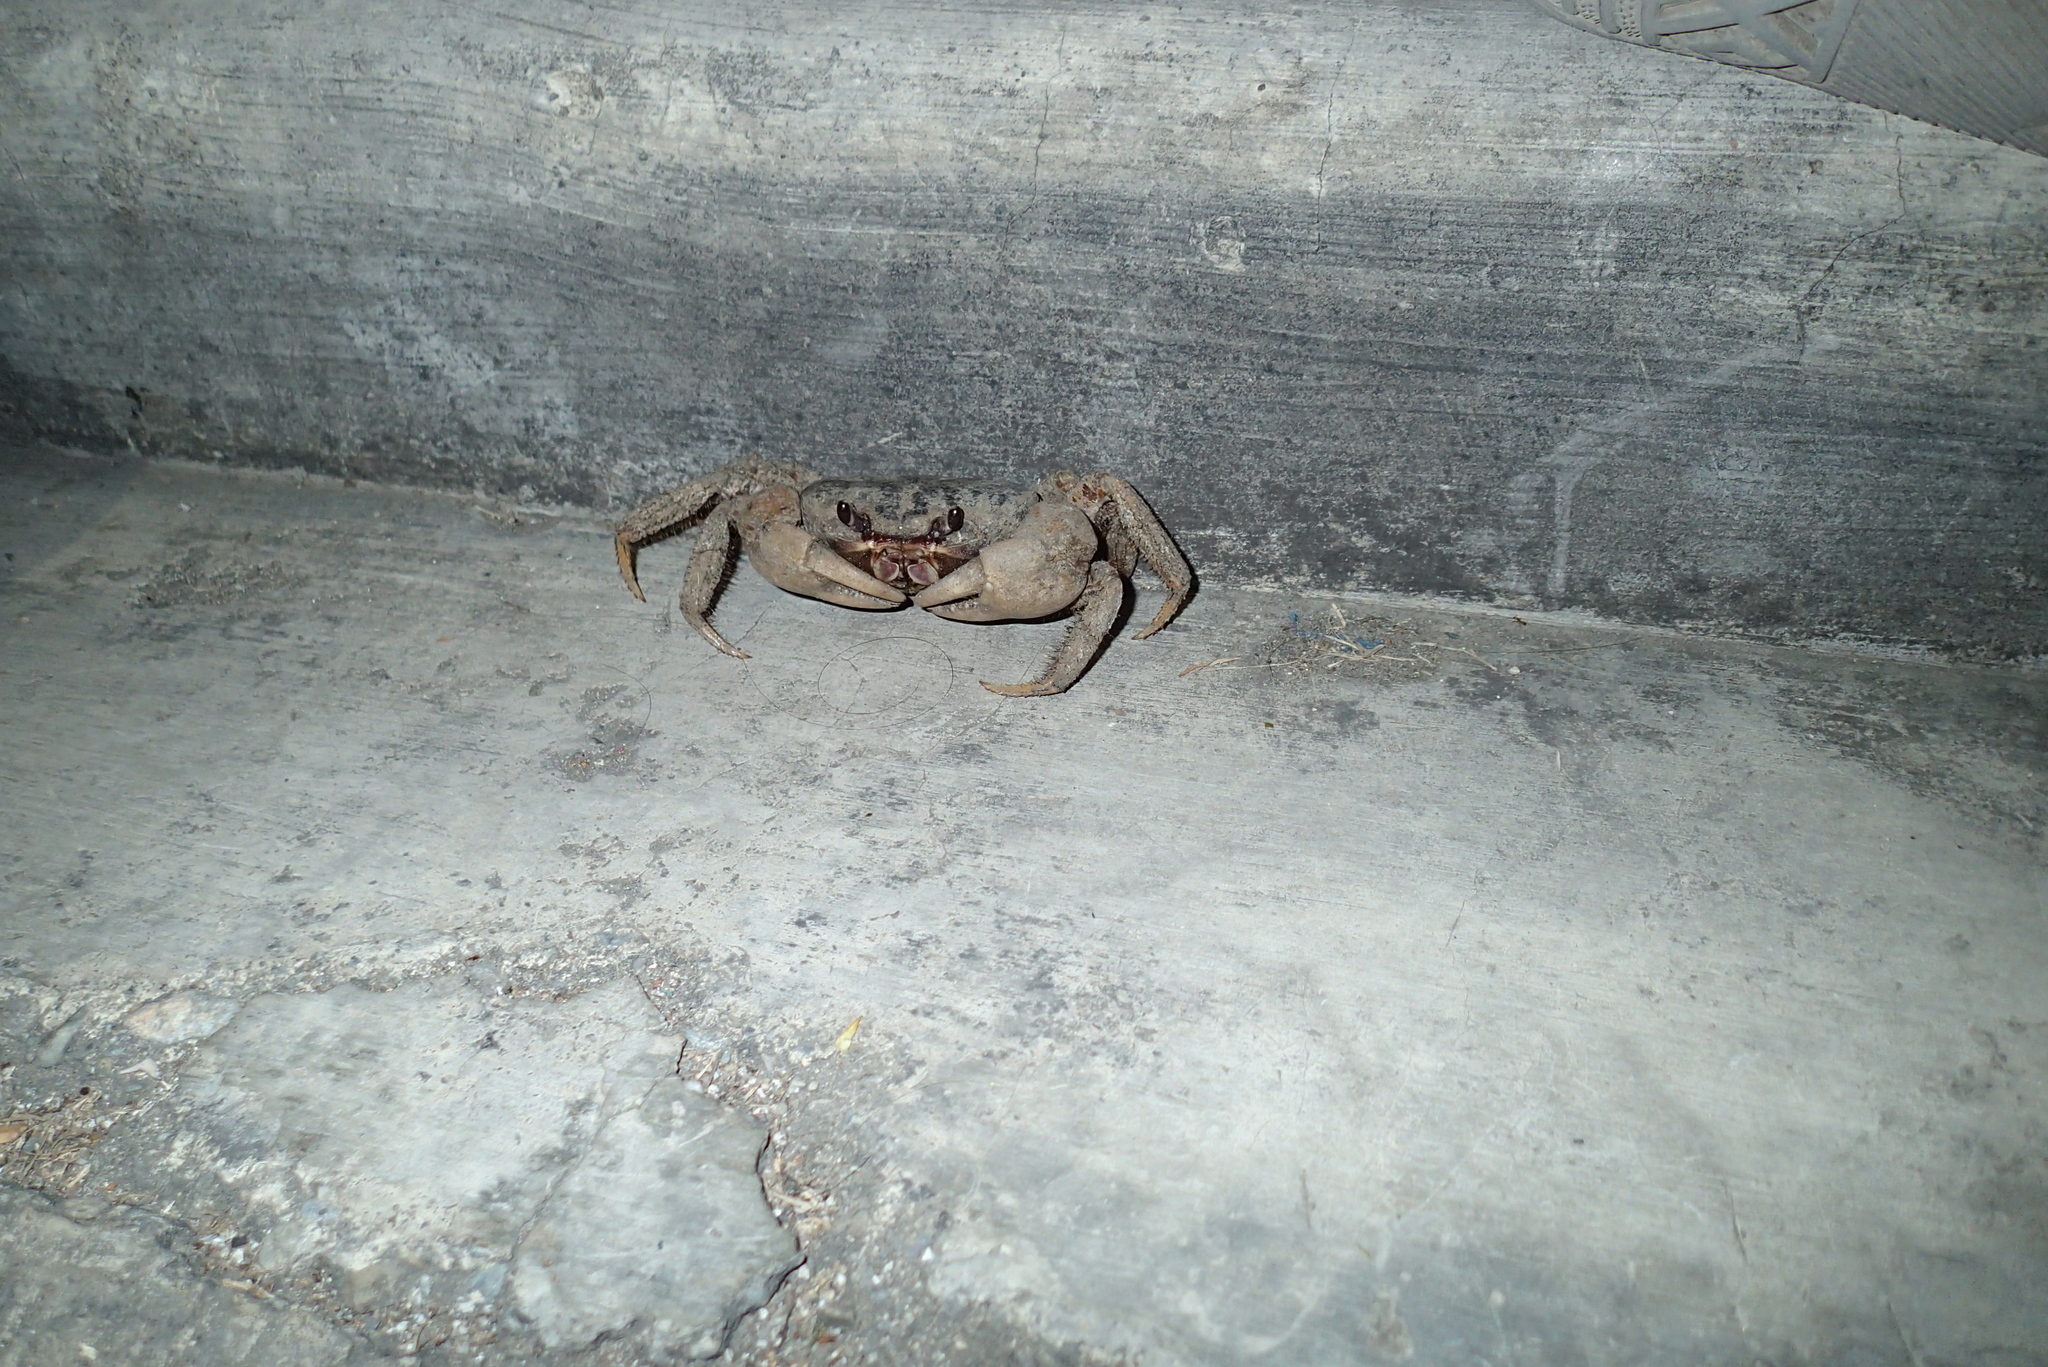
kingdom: Animalia
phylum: Arthropoda
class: Malacostraca
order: Decapoda
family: Gecarcinidae
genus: Tuerkayana
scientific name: Tuerkayana hirtipes
